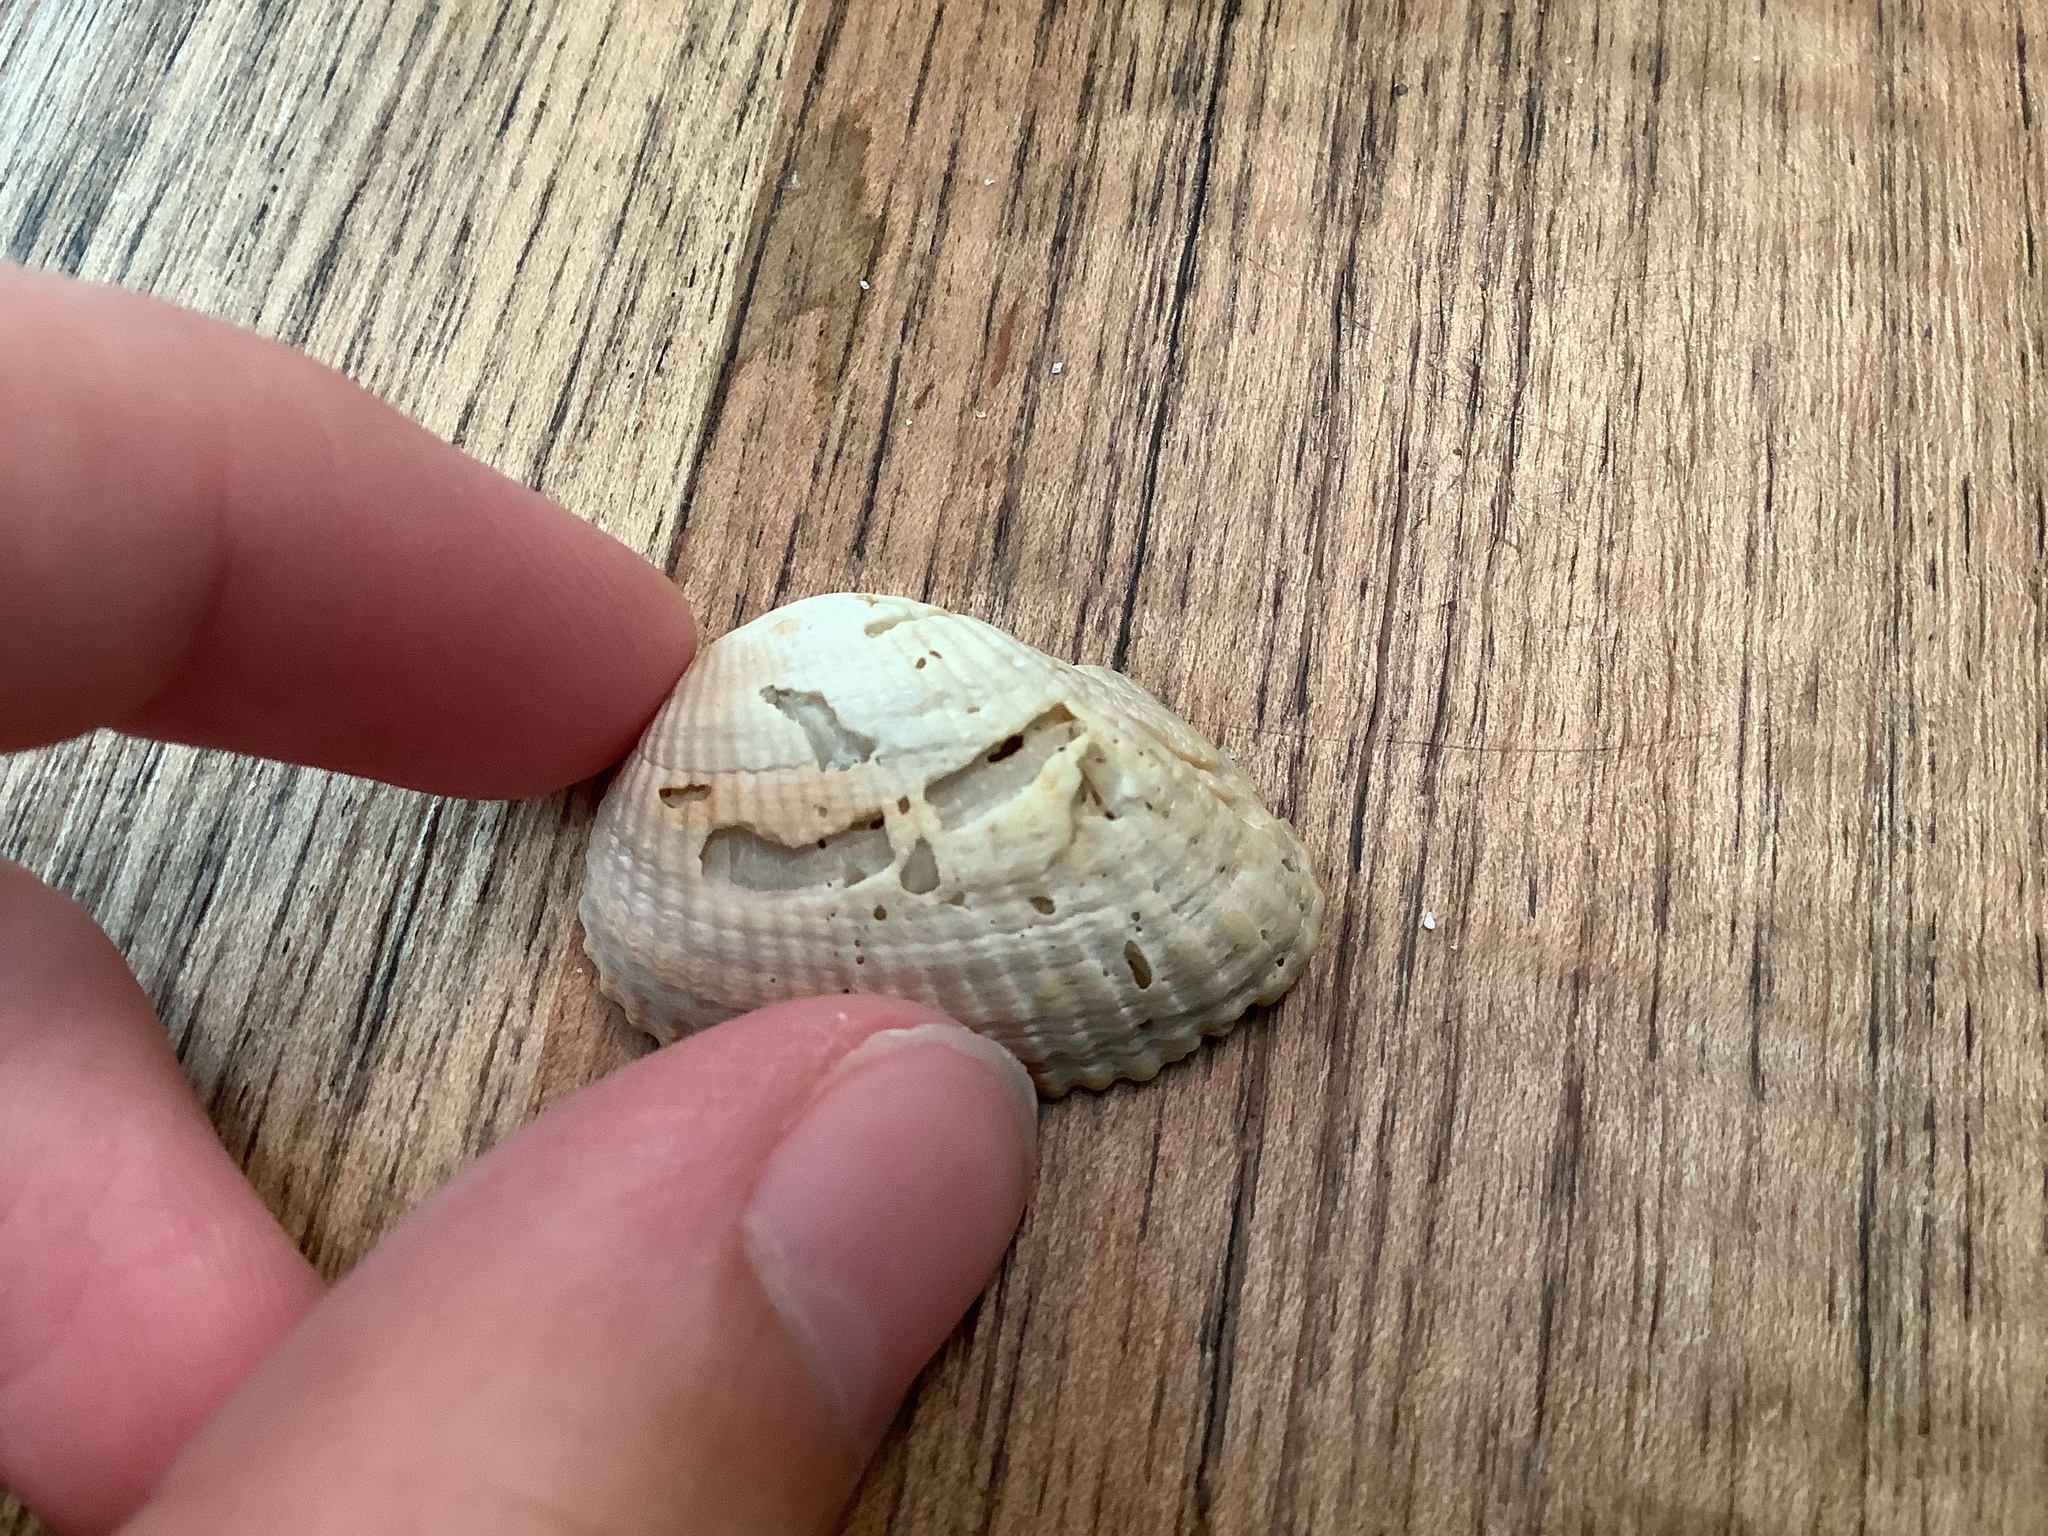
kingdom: Animalia
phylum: Mollusca
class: Bivalvia
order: Arcida
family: Arcidae
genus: Anadara
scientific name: Anadara transversa
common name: Transverse ark
